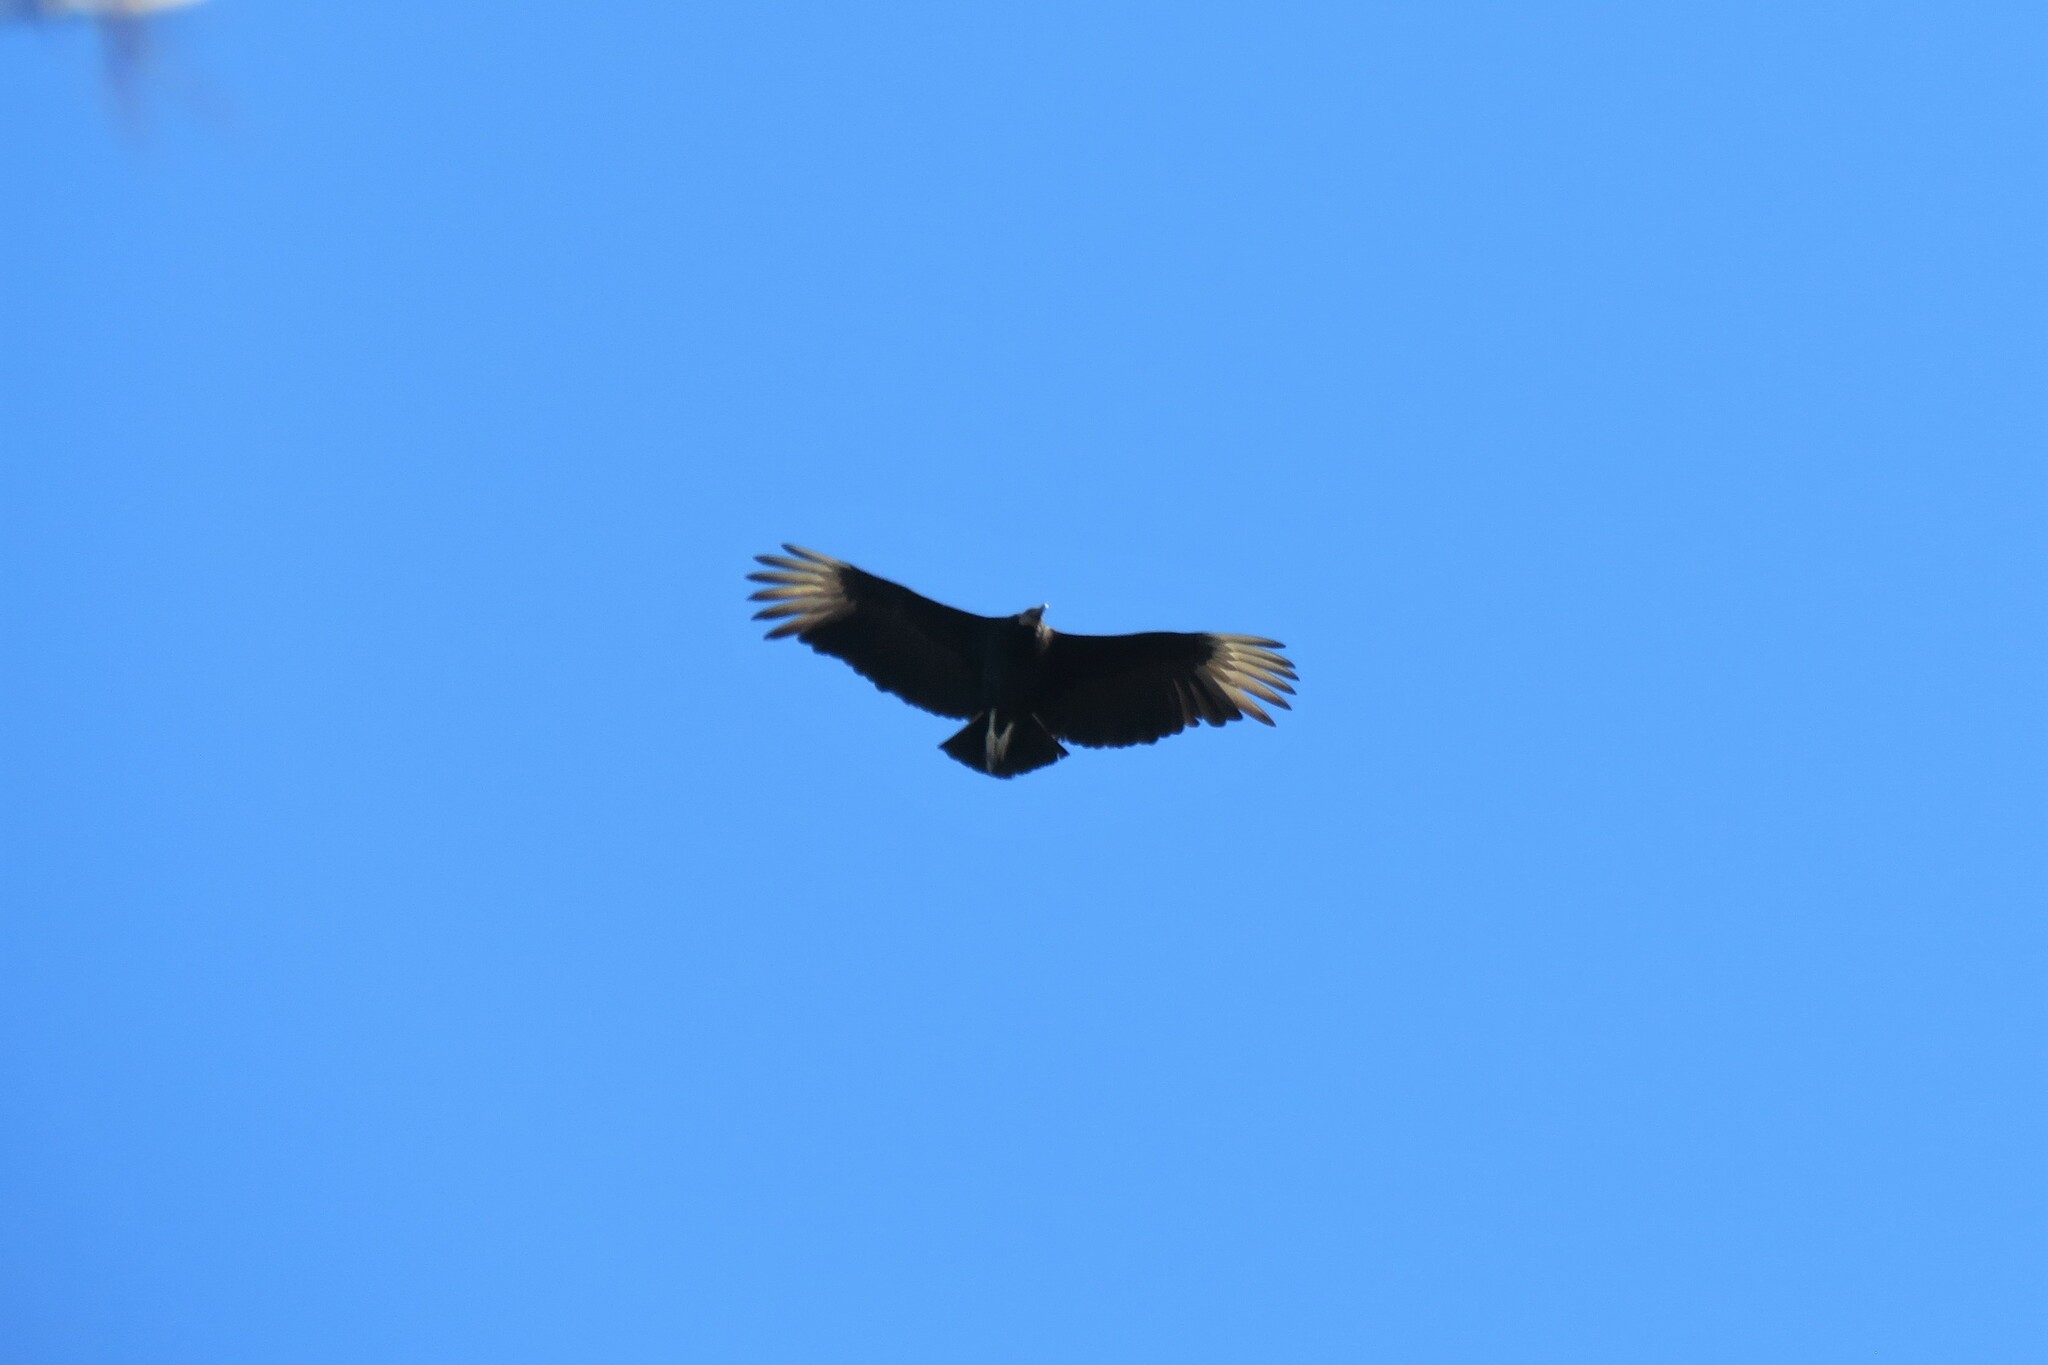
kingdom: Animalia
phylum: Chordata
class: Aves
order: Accipitriformes
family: Cathartidae
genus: Coragyps
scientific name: Coragyps atratus
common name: Black vulture
